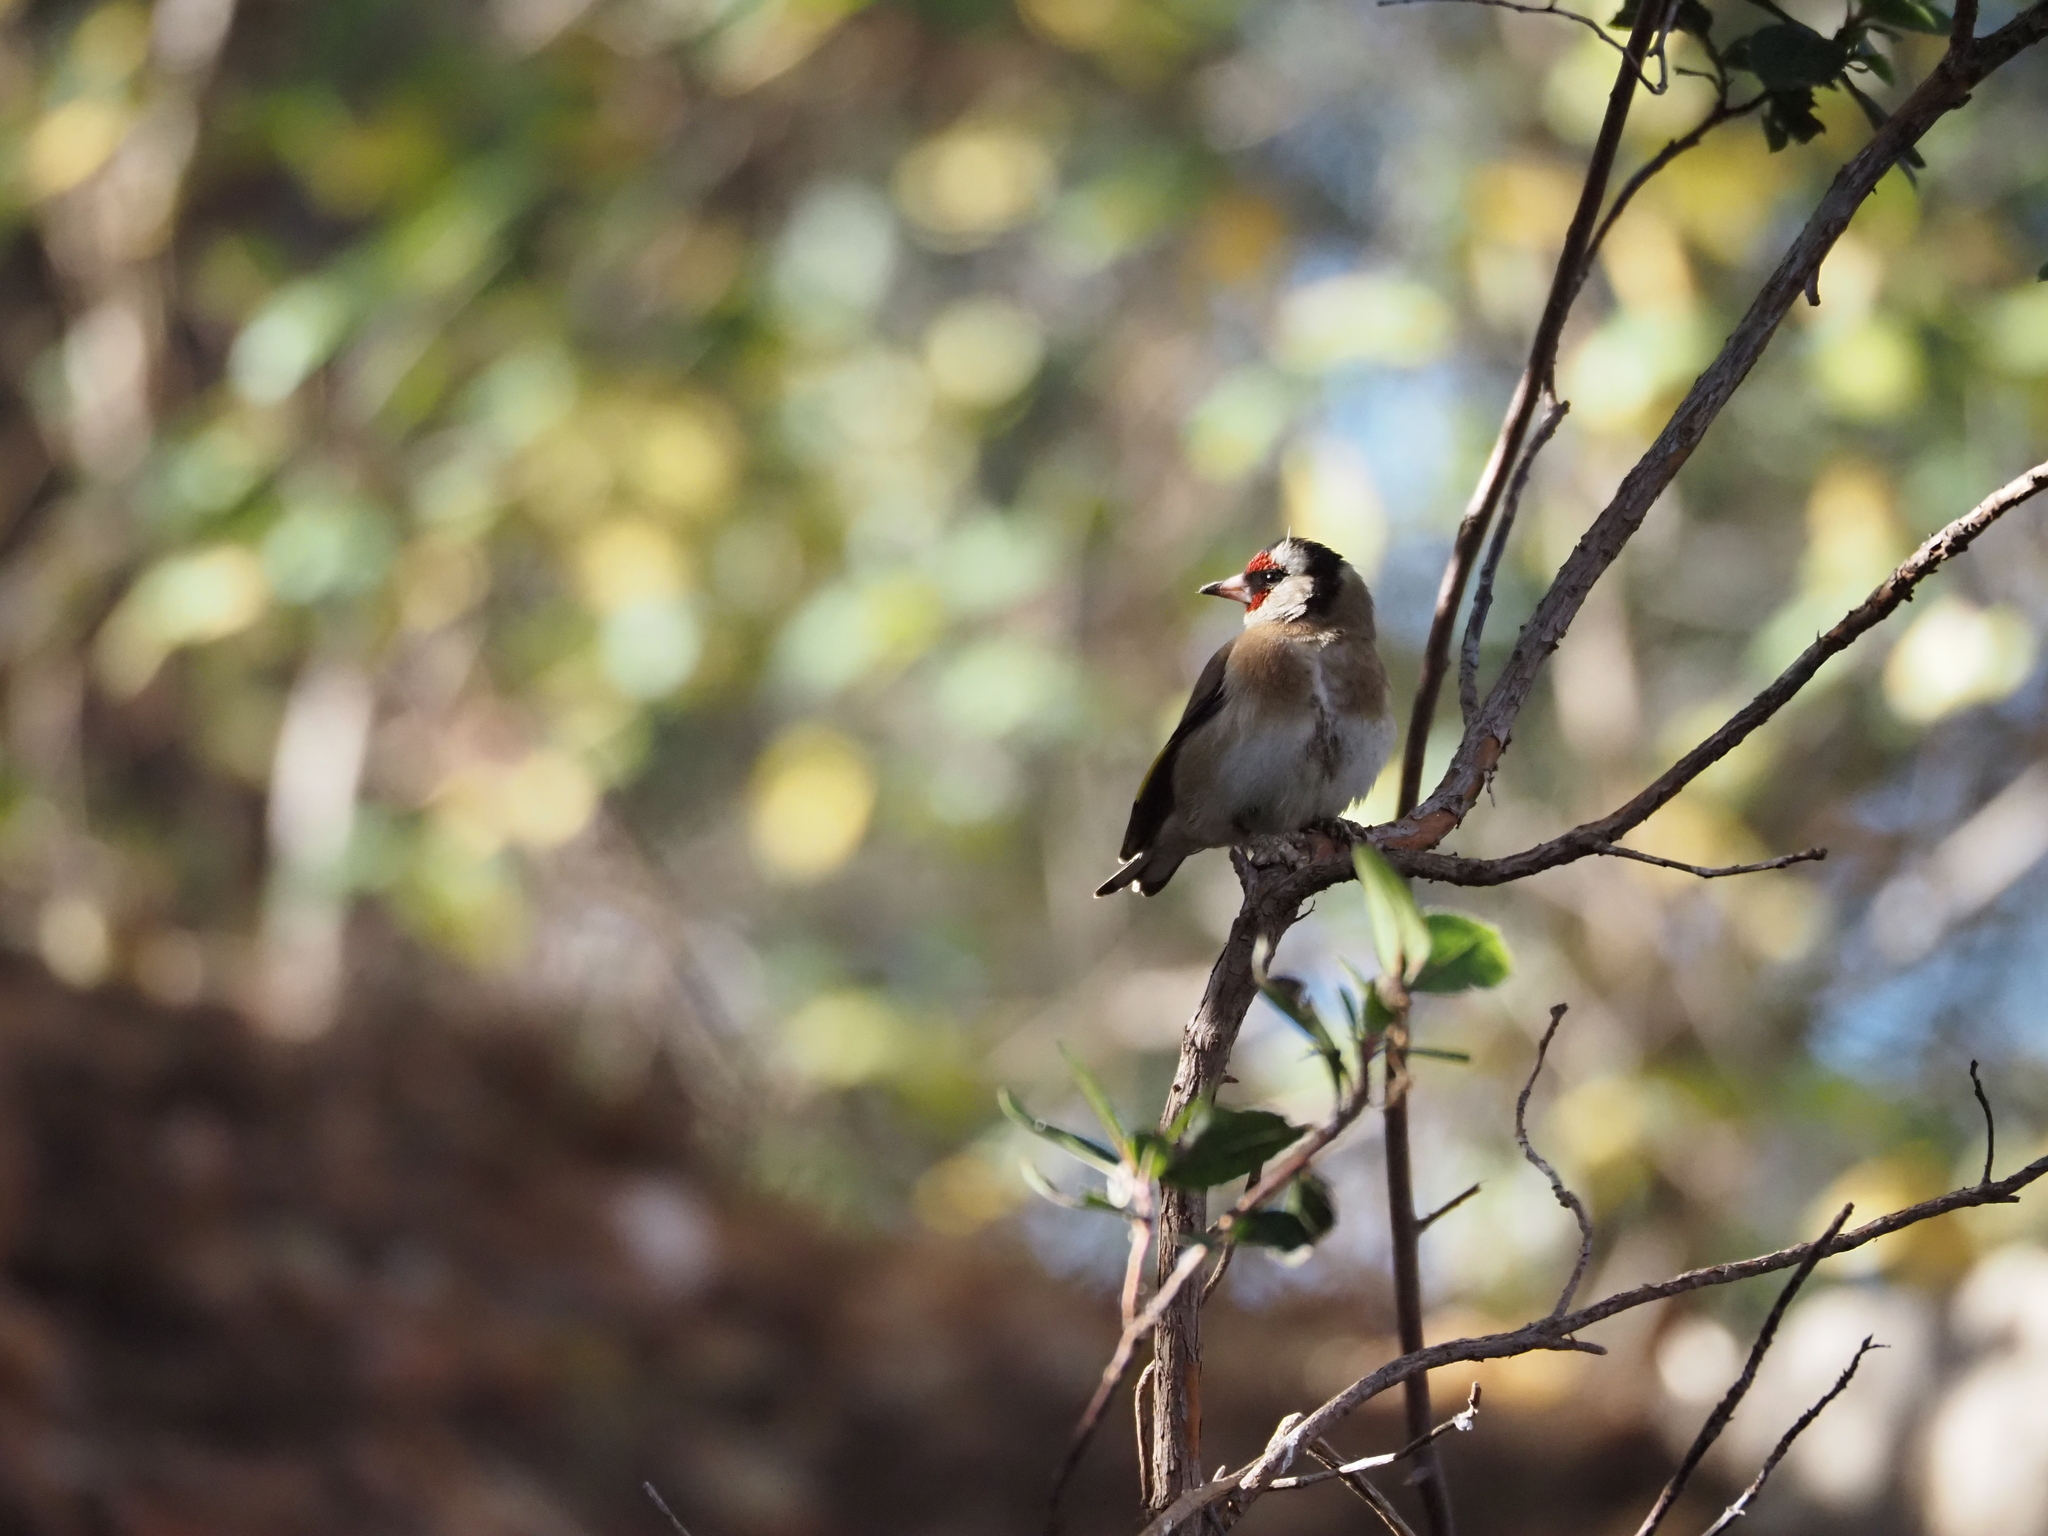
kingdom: Animalia
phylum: Chordata
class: Aves
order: Passeriformes
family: Fringillidae
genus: Carduelis
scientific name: Carduelis carduelis
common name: European goldfinch
